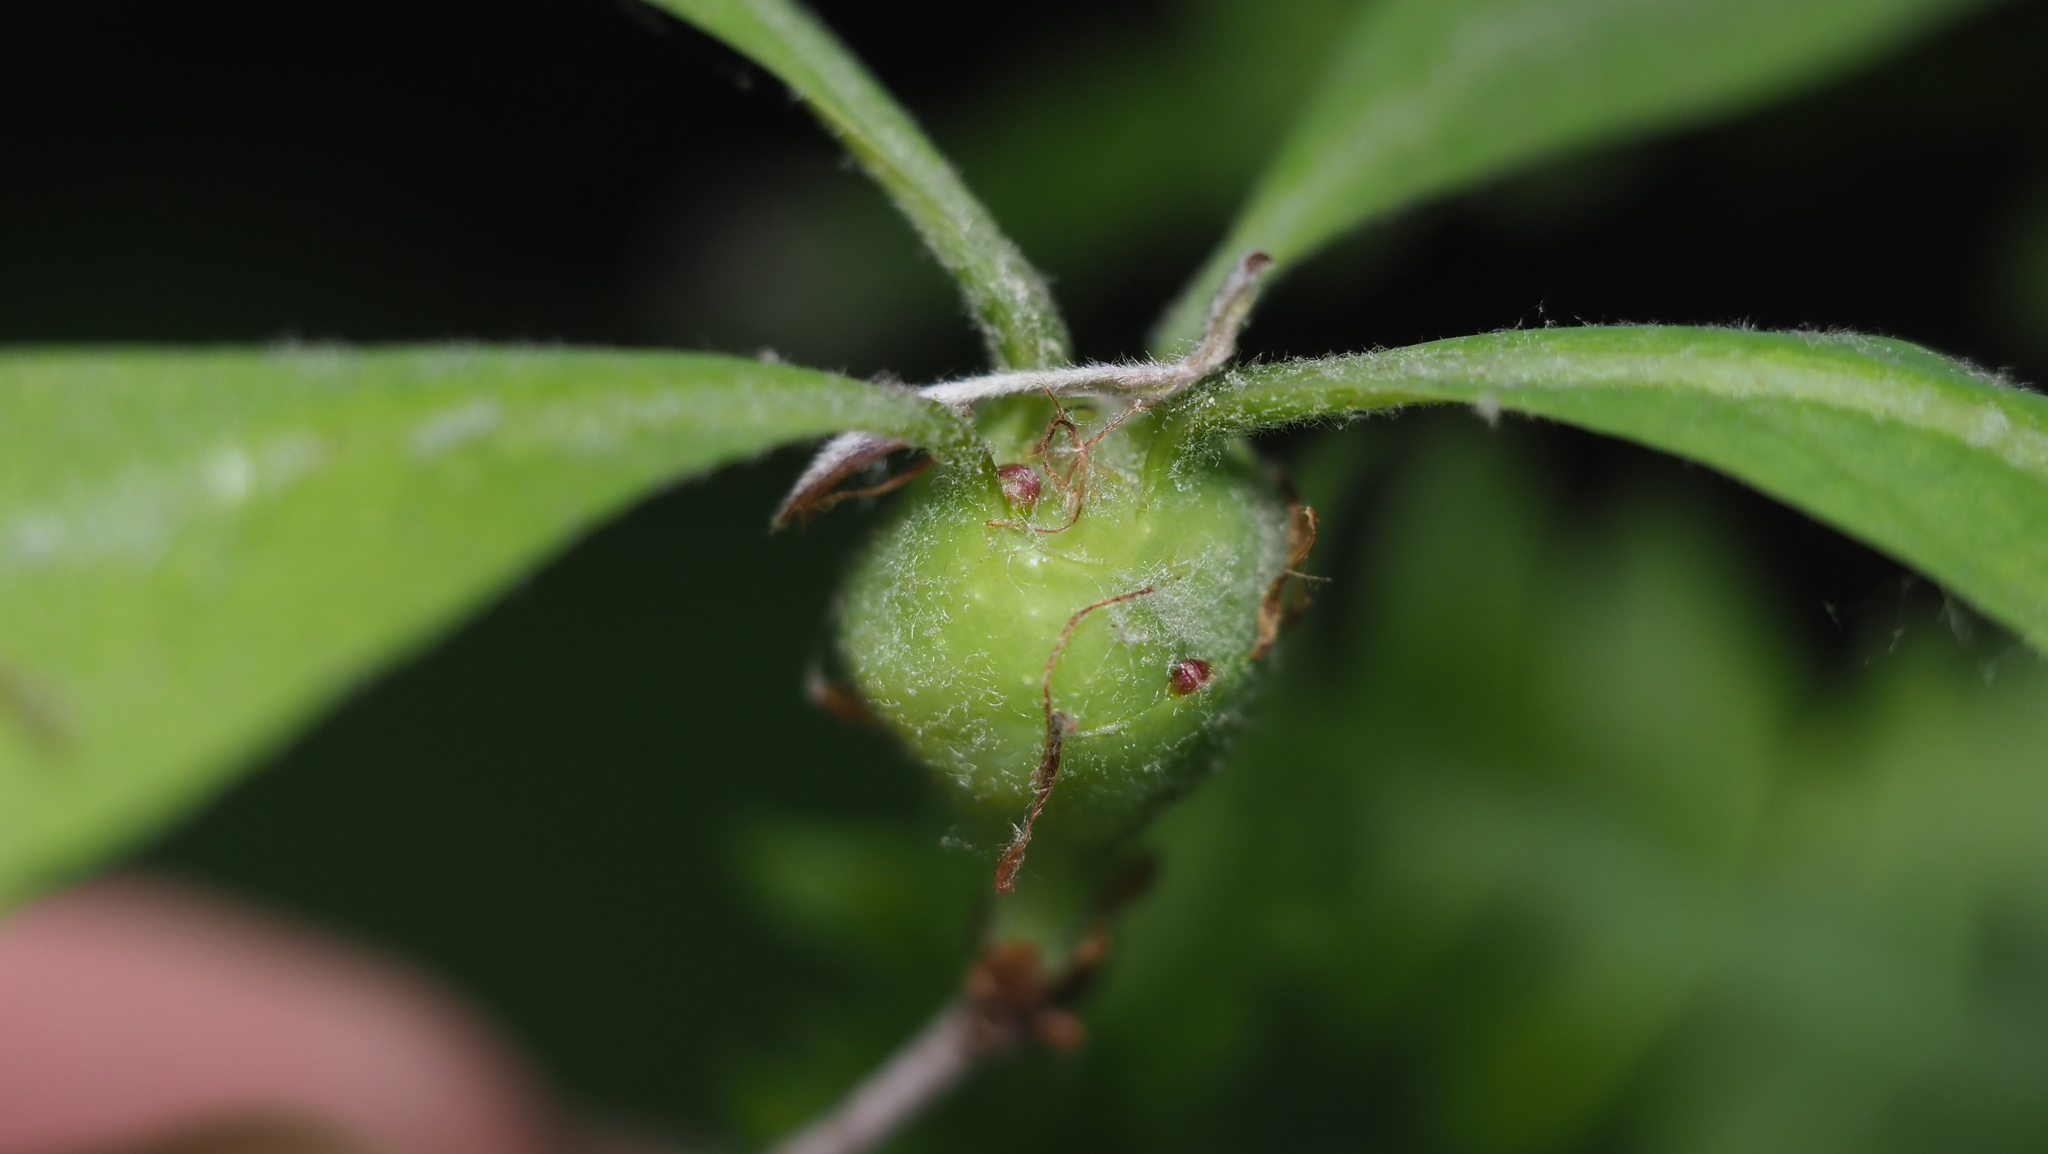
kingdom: Animalia
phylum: Arthropoda
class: Insecta
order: Hymenoptera
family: Cynipidae
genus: Callirhytis
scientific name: Callirhytis clavula
